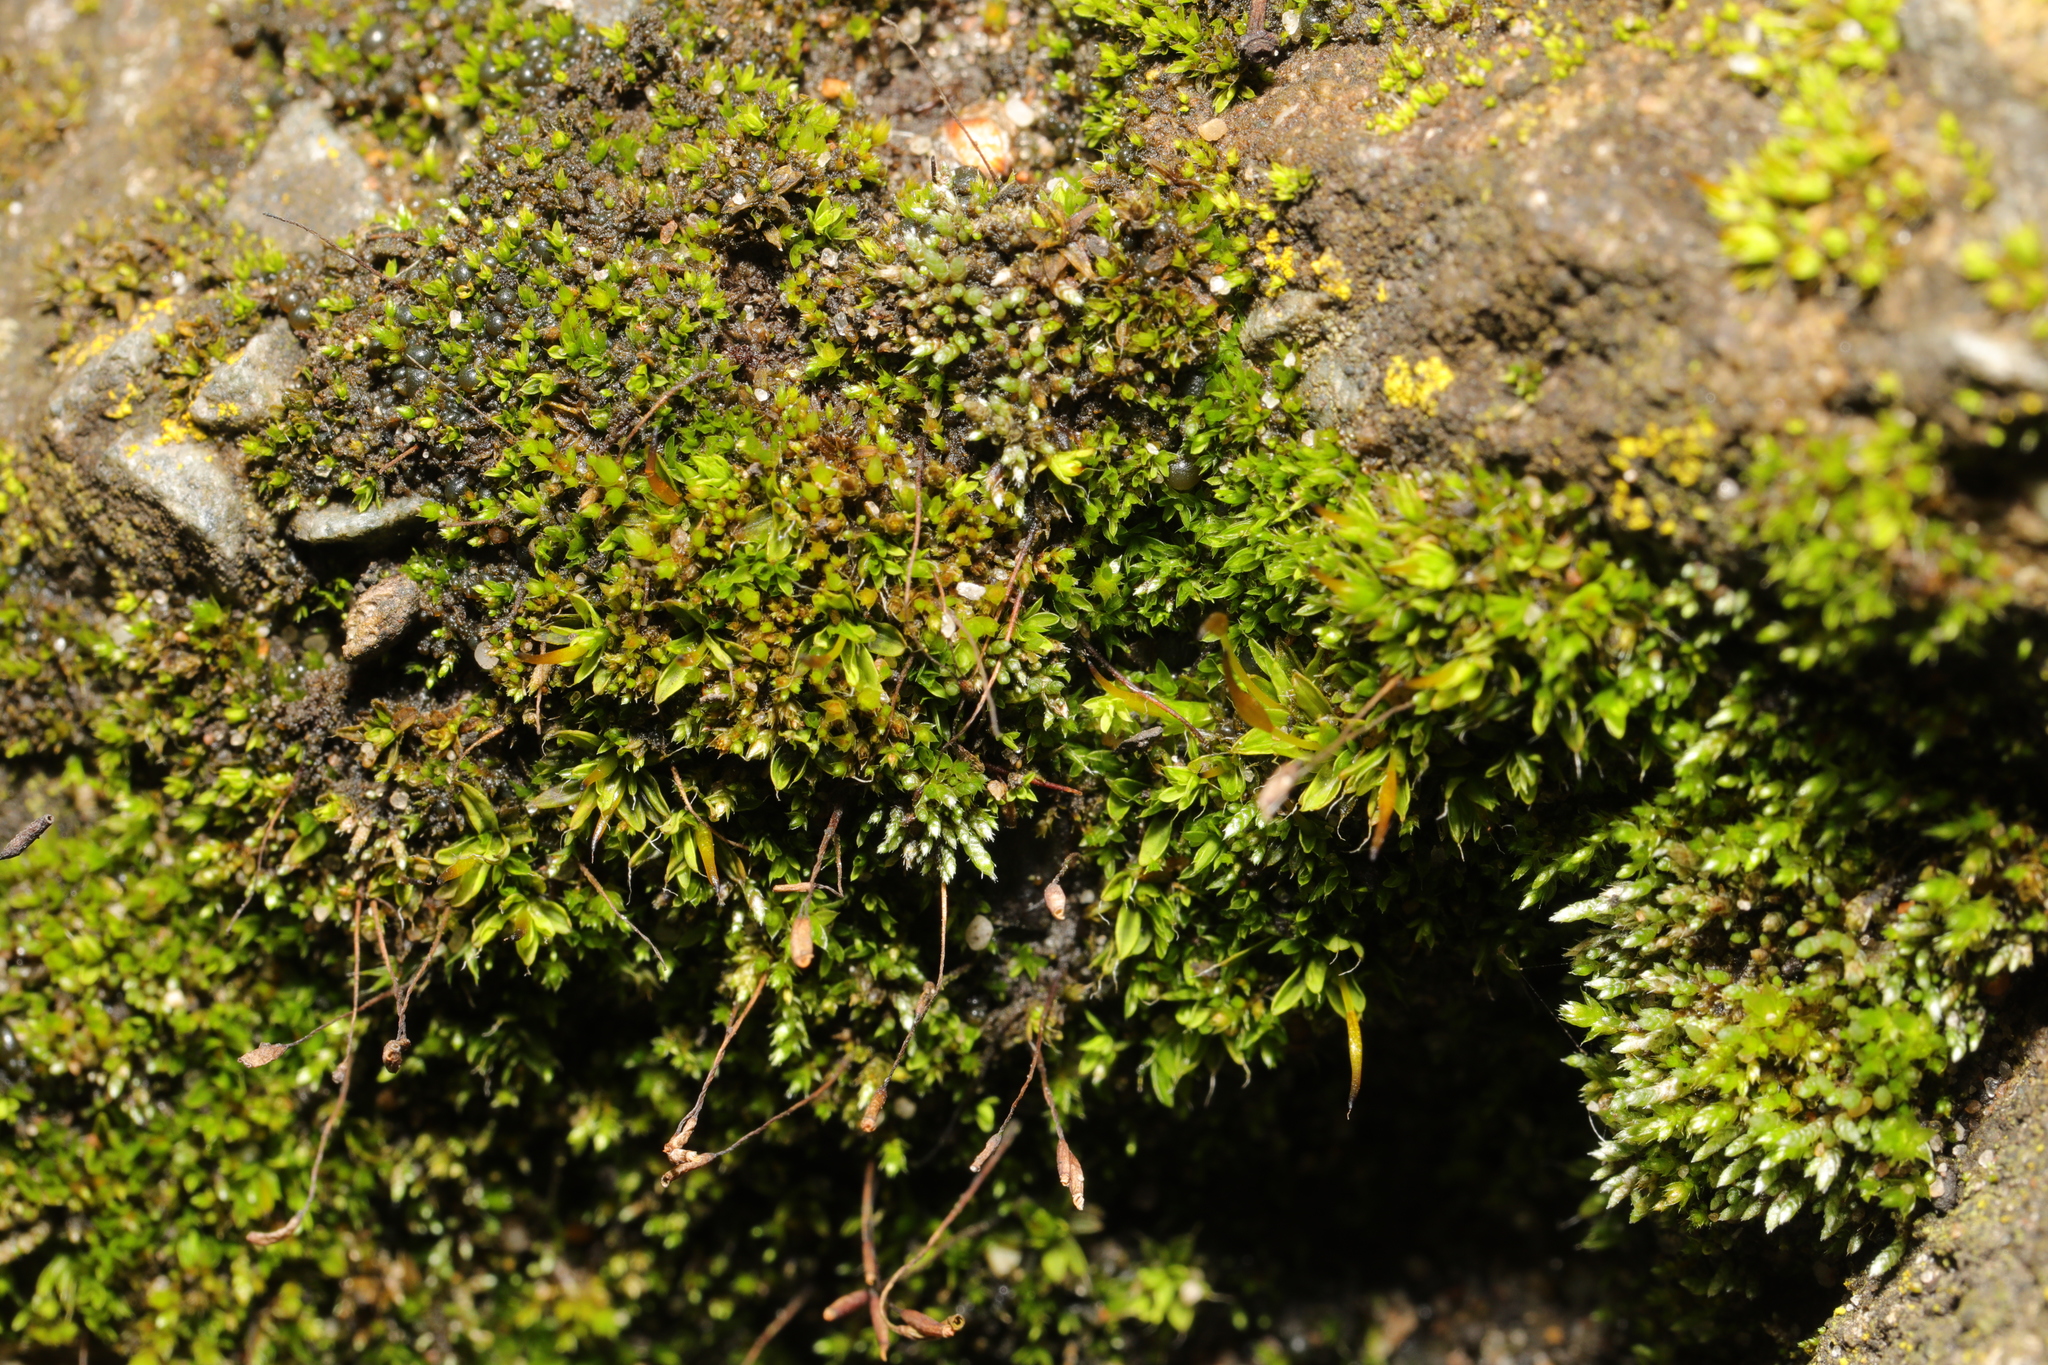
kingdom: Plantae
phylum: Bryophyta
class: Bryopsida
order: Bryales
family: Bryaceae
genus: Bryum
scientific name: Bryum argenteum
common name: Silver-moss
